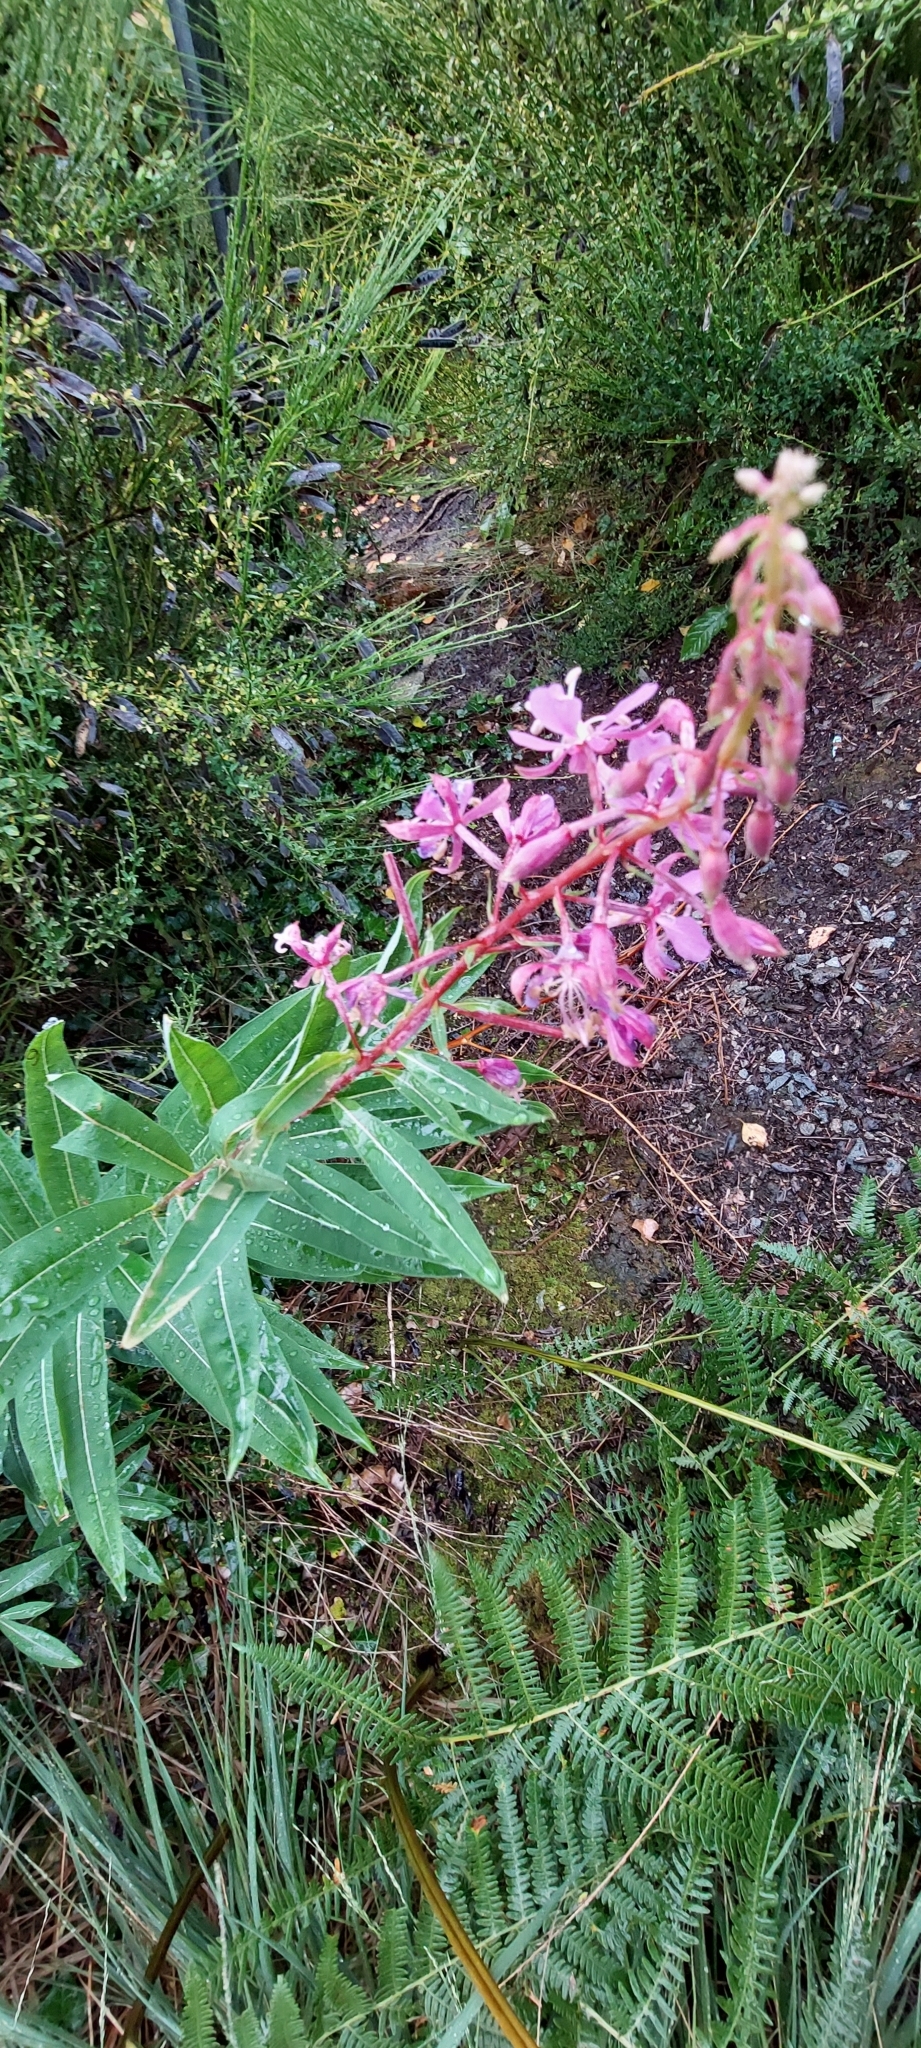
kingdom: Plantae
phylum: Tracheophyta
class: Magnoliopsida
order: Myrtales
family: Onagraceae
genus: Chamaenerion
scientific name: Chamaenerion angustifolium
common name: Fireweed
